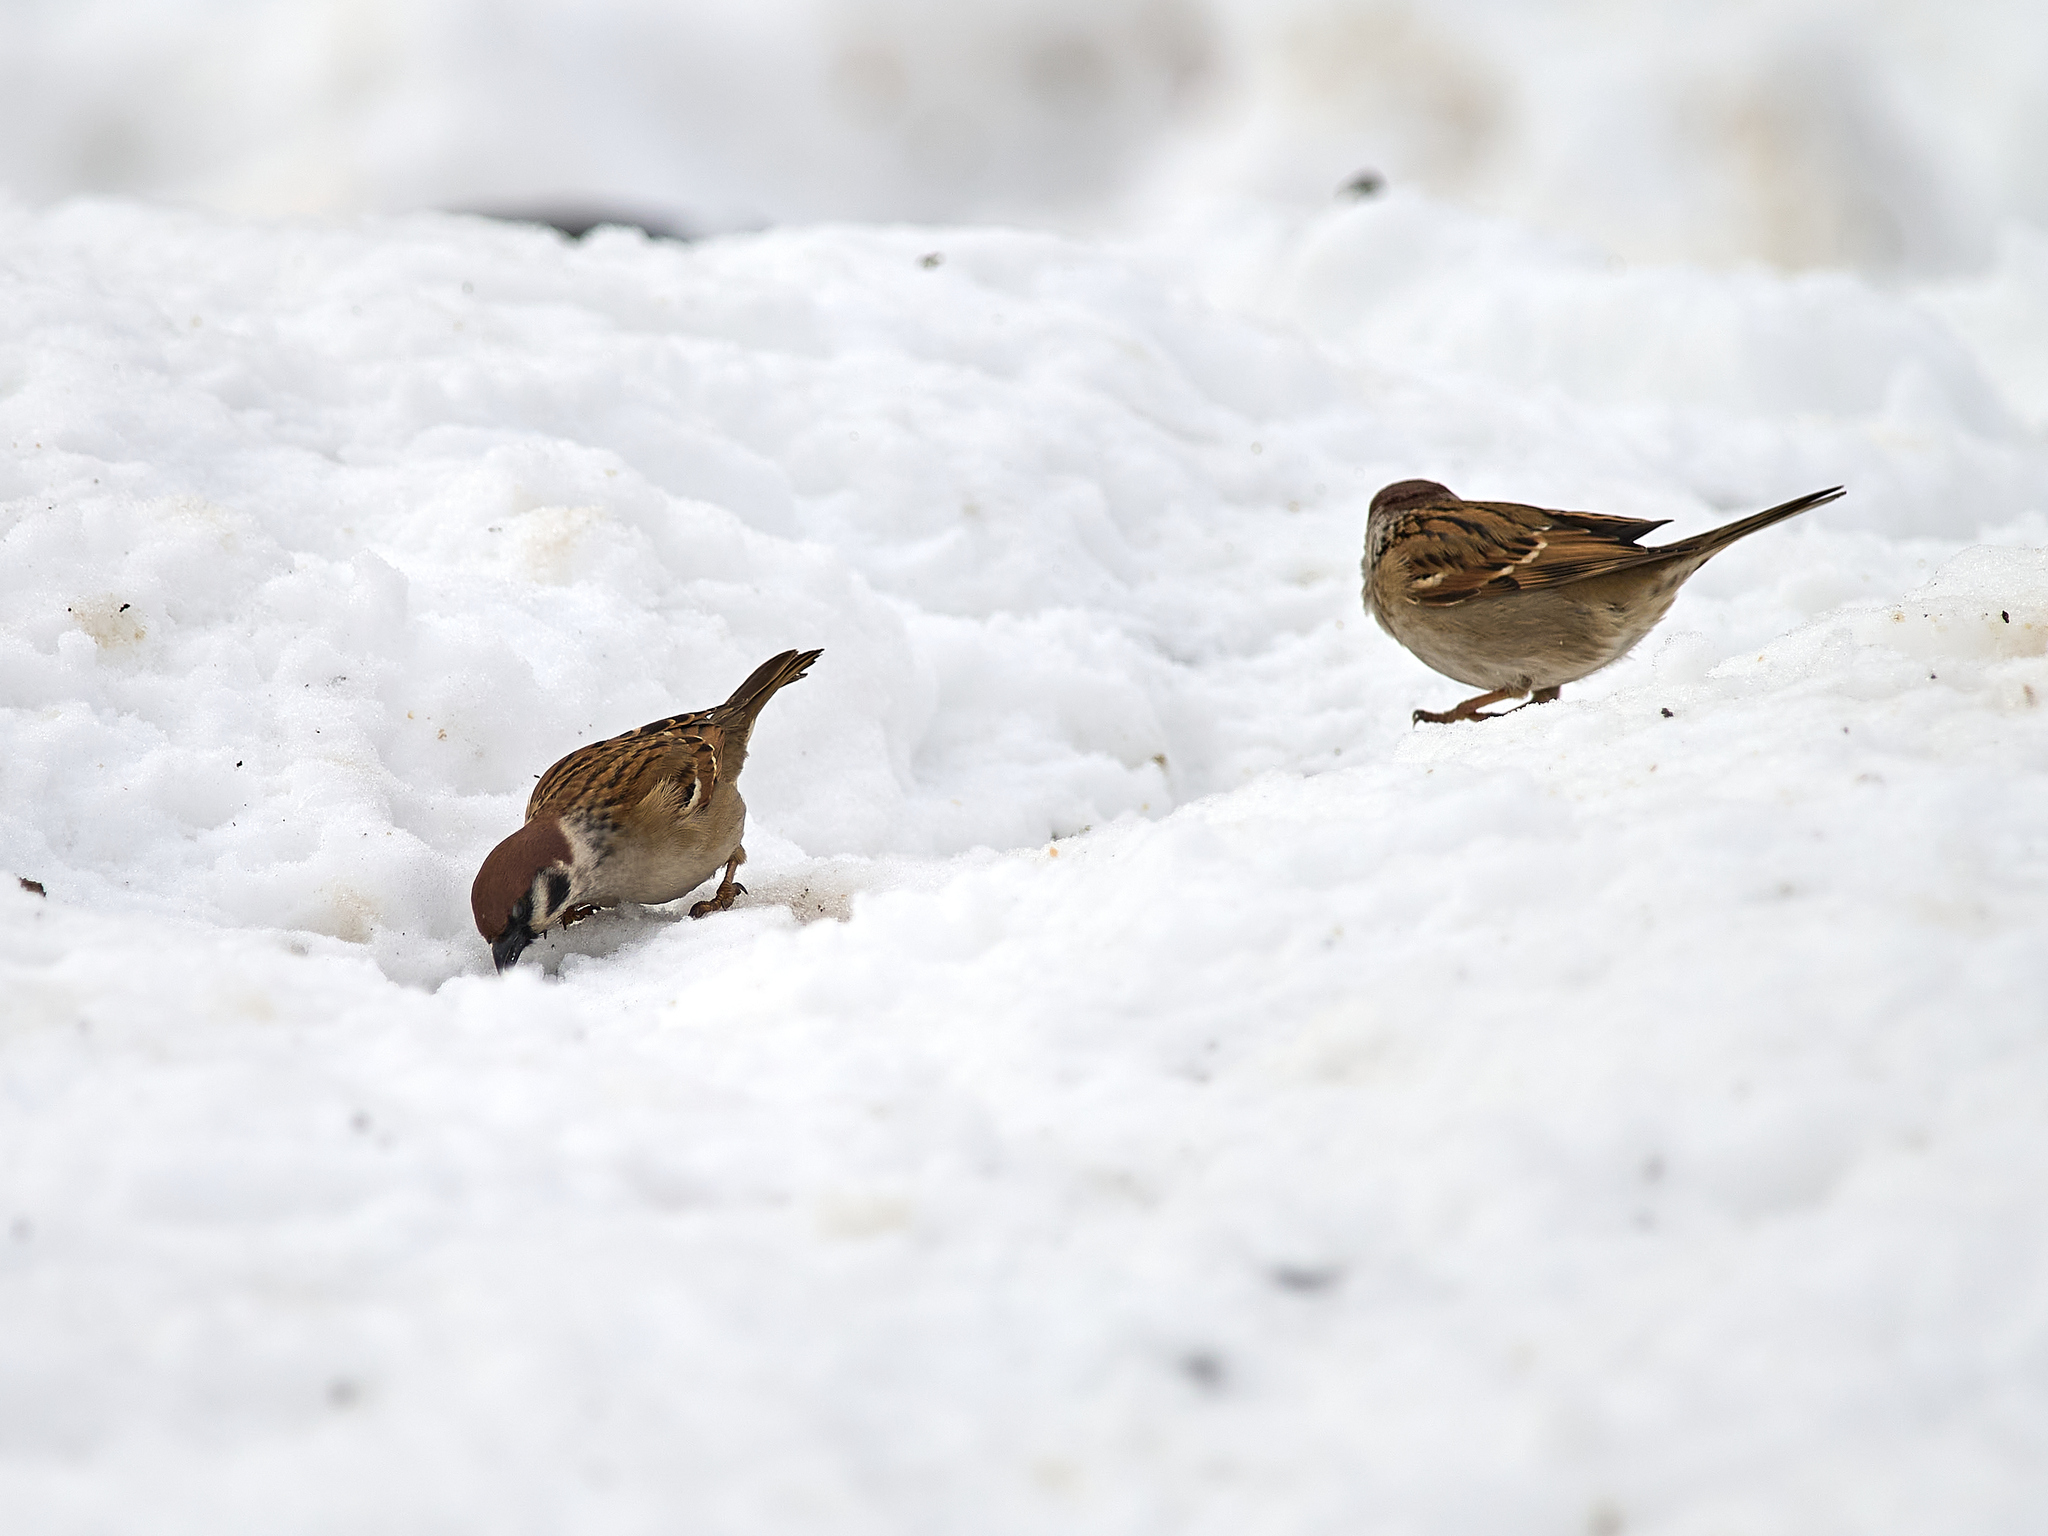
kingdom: Animalia
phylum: Chordata
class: Aves
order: Passeriformes
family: Passeridae
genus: Passer
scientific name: Passer montanus
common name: Eurasian tree sparrow
